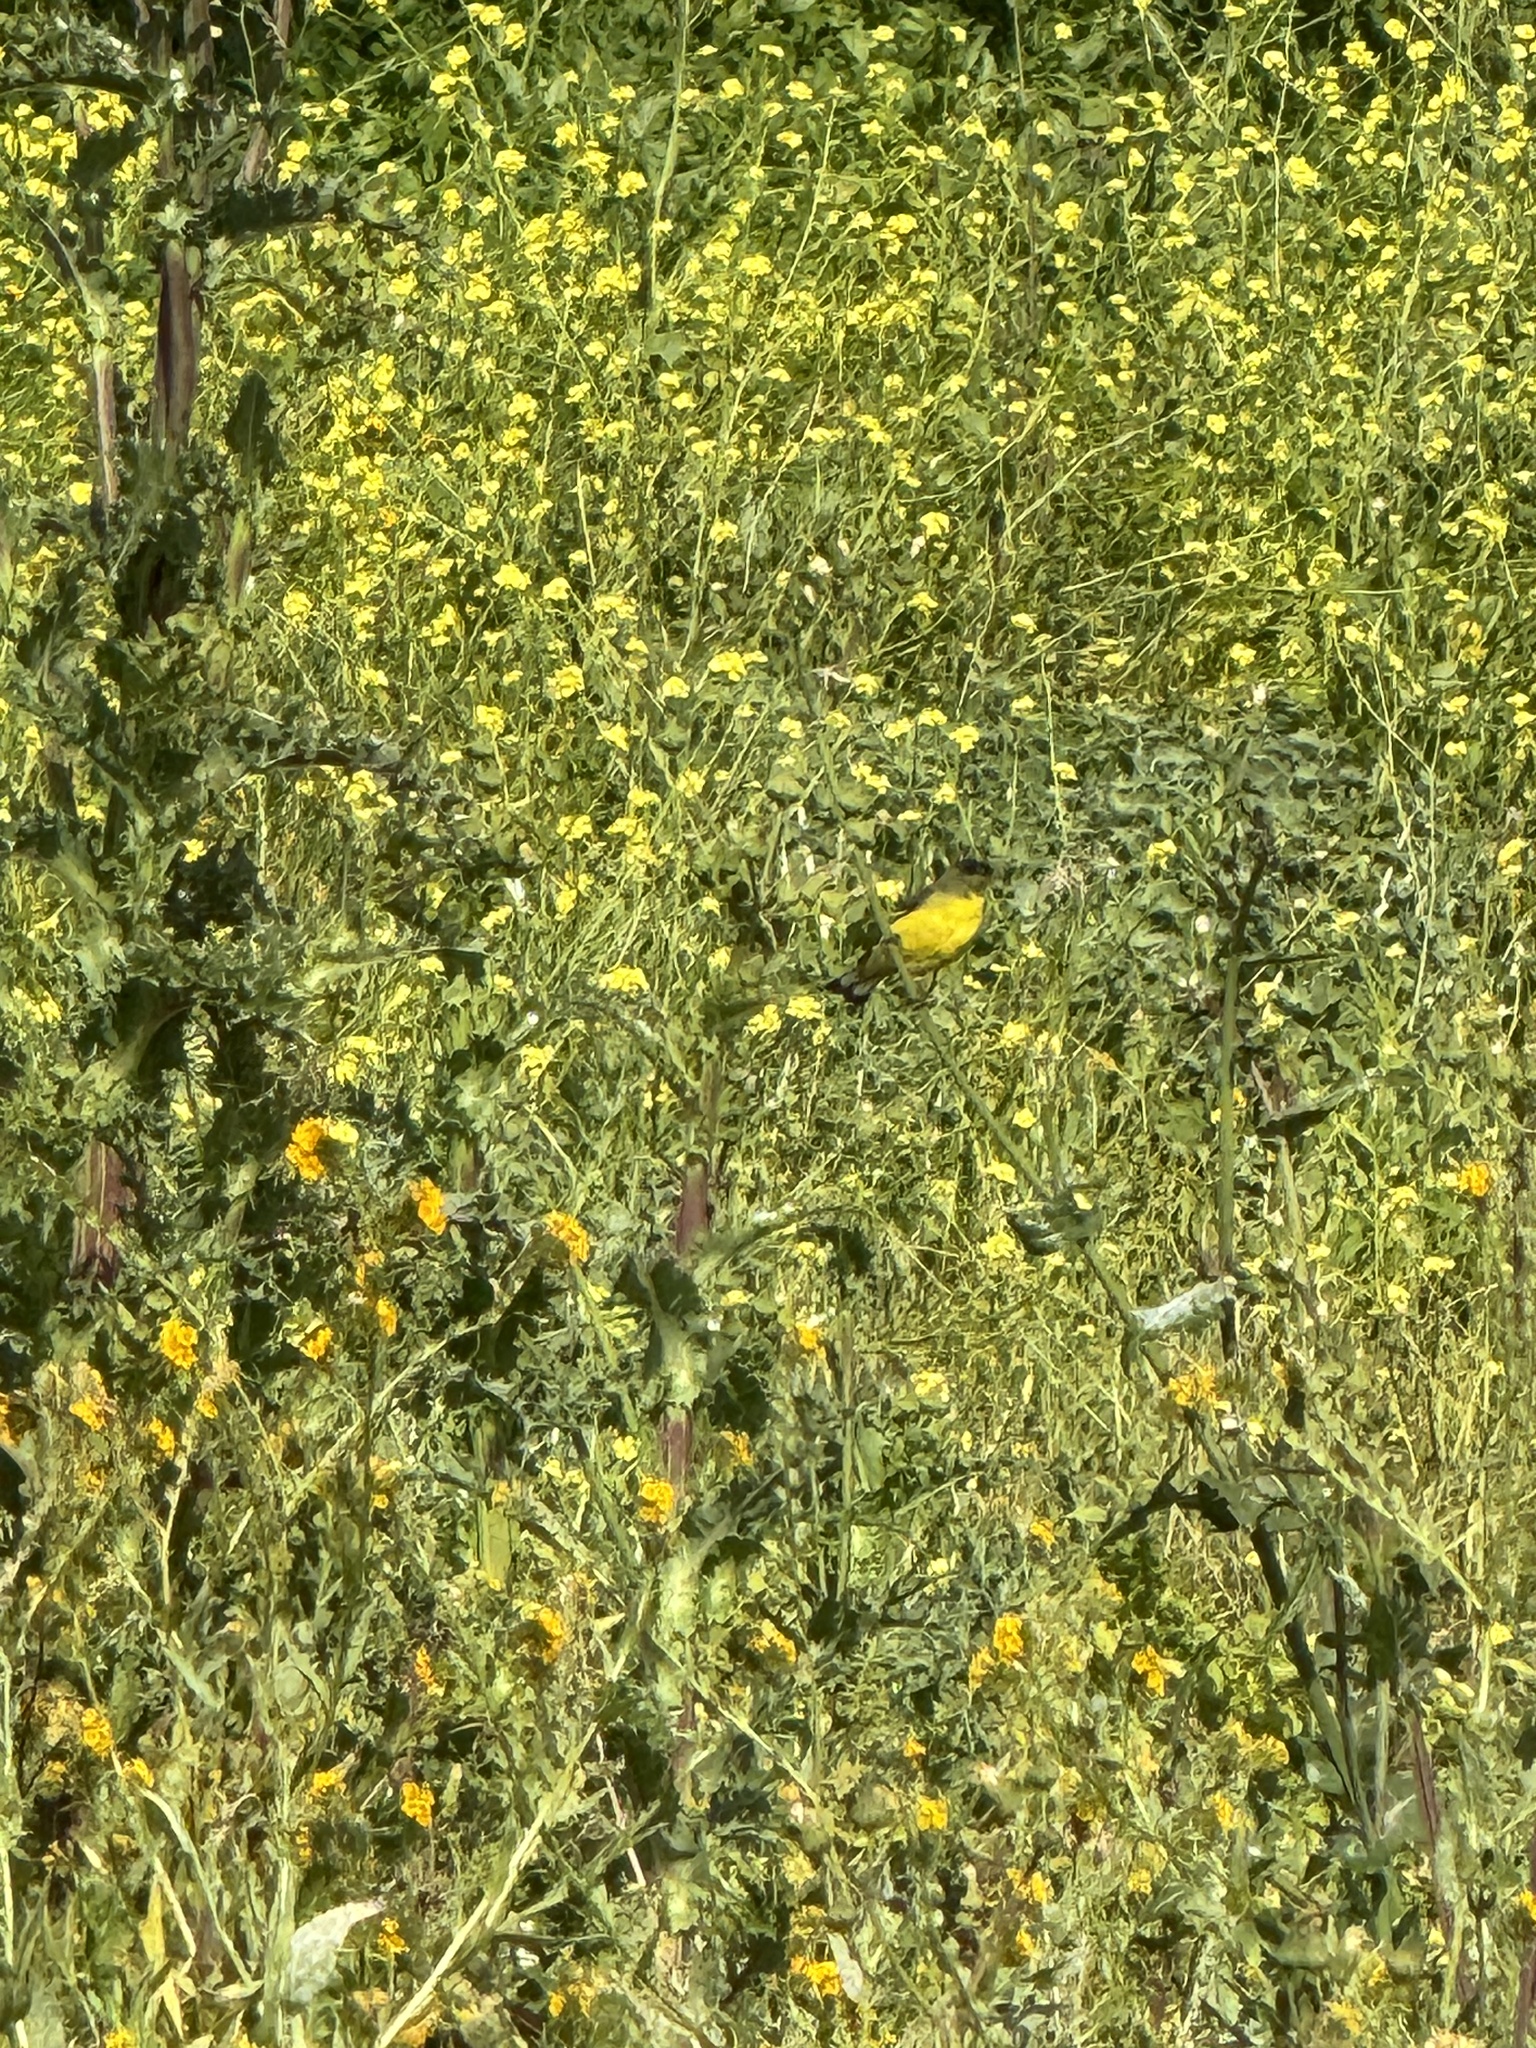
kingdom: Animalia
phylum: Chordata
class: Aves
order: Passeriformes
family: Fringillidae
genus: Spinus
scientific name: Spinus psaltria
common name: Lesser goldfinch
